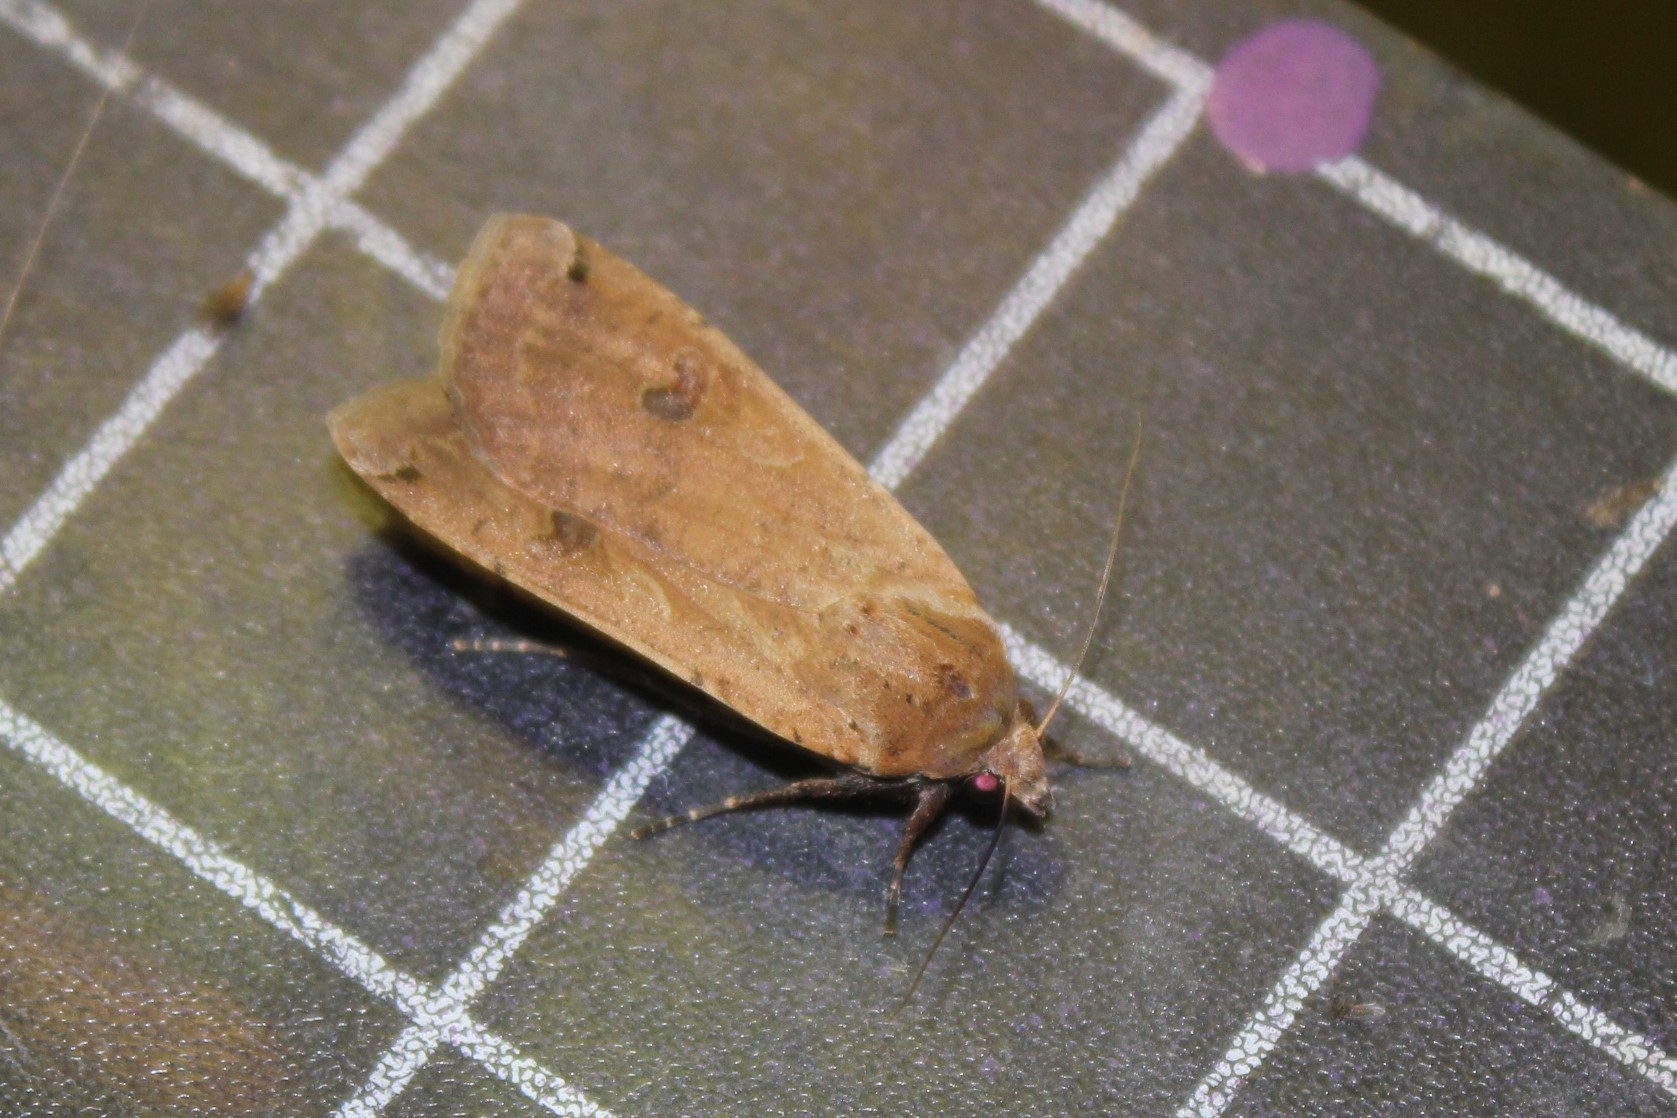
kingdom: Animalia
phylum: Arthropoda
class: Insecta
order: Lepidoptera
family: Noctuidae
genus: Noctua
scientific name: Noctua pronuba
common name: Large yellow underwing
